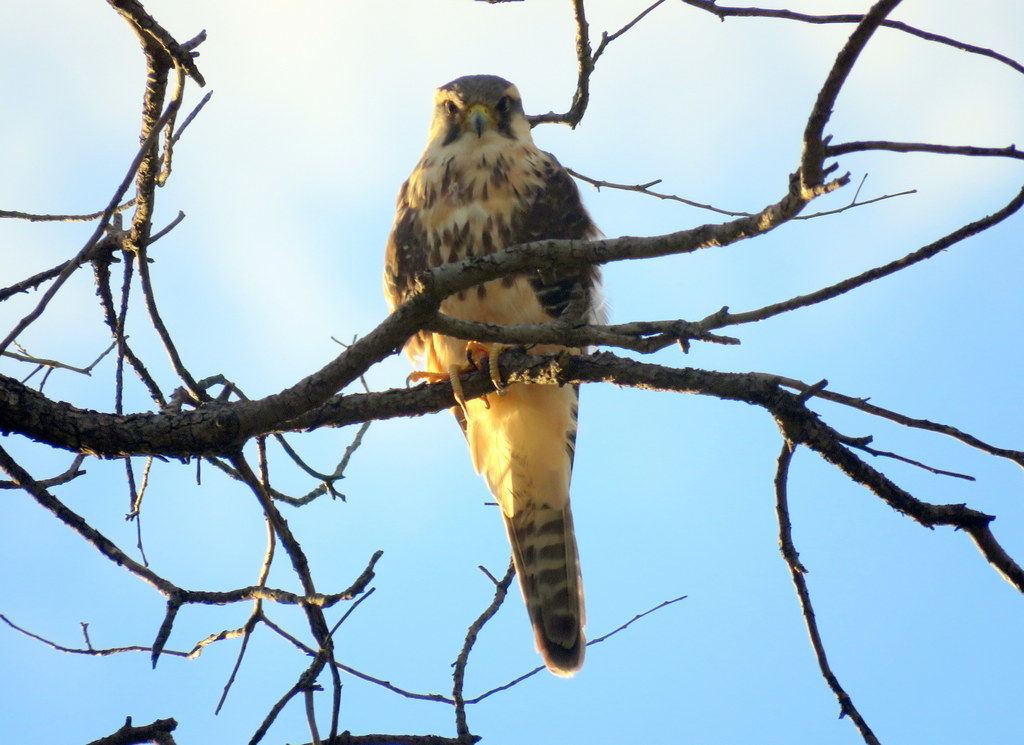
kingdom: Animalia
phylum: Chordata
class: Aves
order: Falconiformes
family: Falconidae
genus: Falco
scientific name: Falco femoralis
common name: Aplomado falcon
